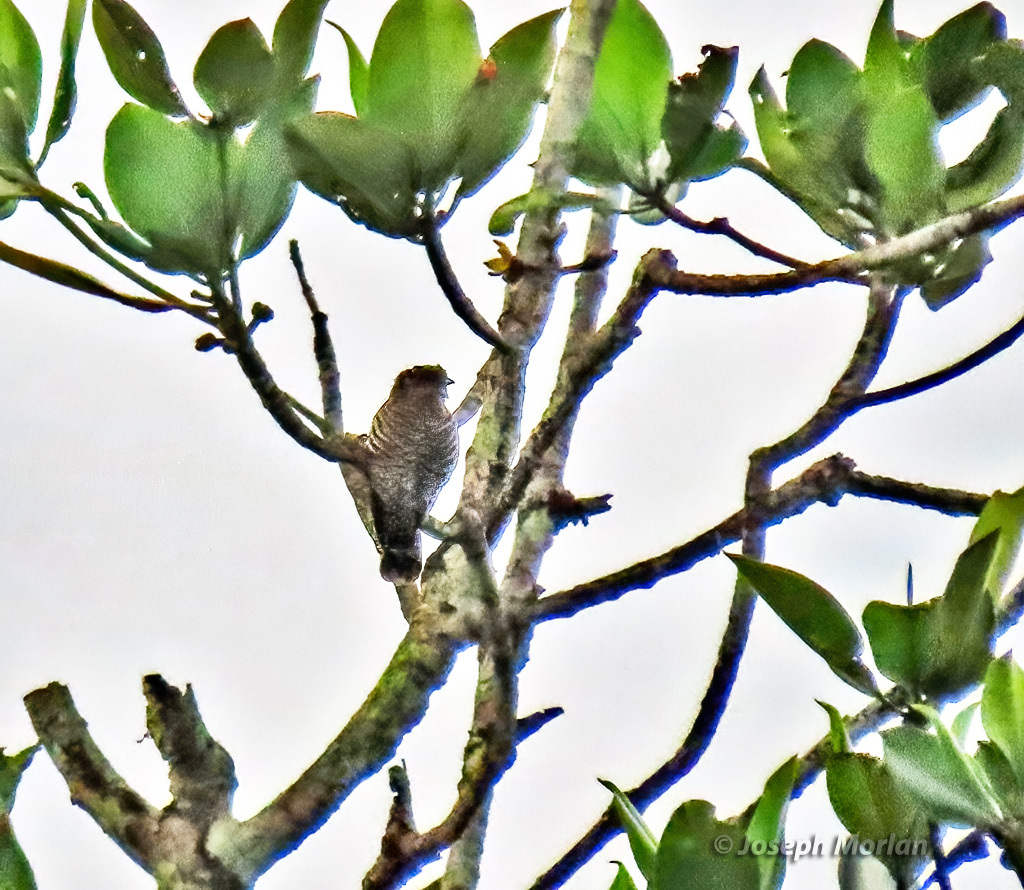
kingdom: Animalia
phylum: Chordata
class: Aves
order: Passeriformes
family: Estrildidae
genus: Lonchura
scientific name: Lonchura punctulata
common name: Scaly-breasted munia
